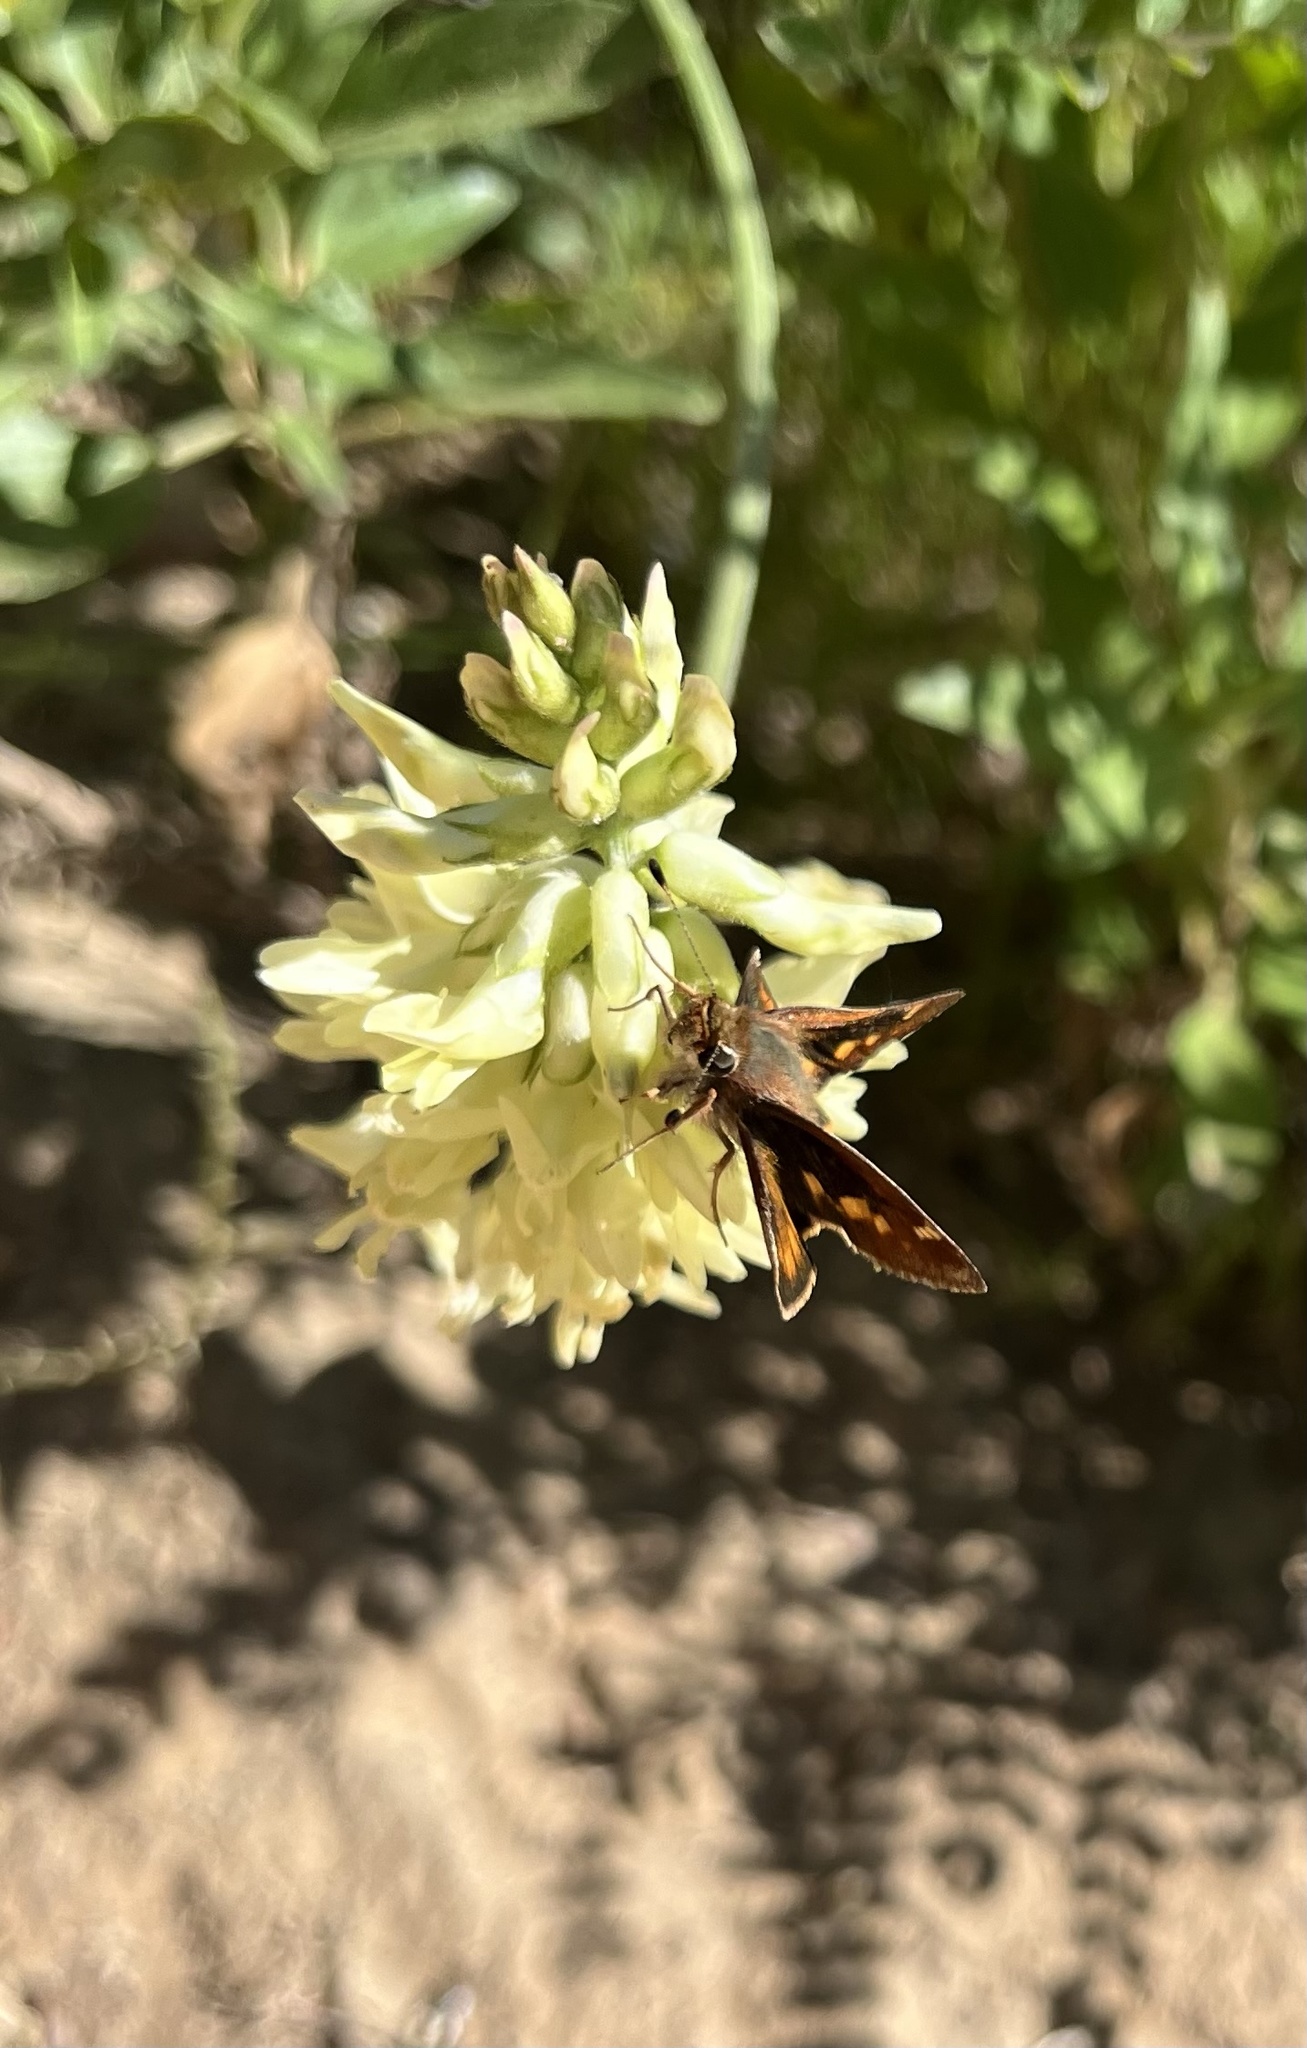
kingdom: Animalia
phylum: Arthropoda
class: Insecta
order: Lepidoptera
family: Hesperiidae
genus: Lon
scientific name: Lon melane
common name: Umber skipper
